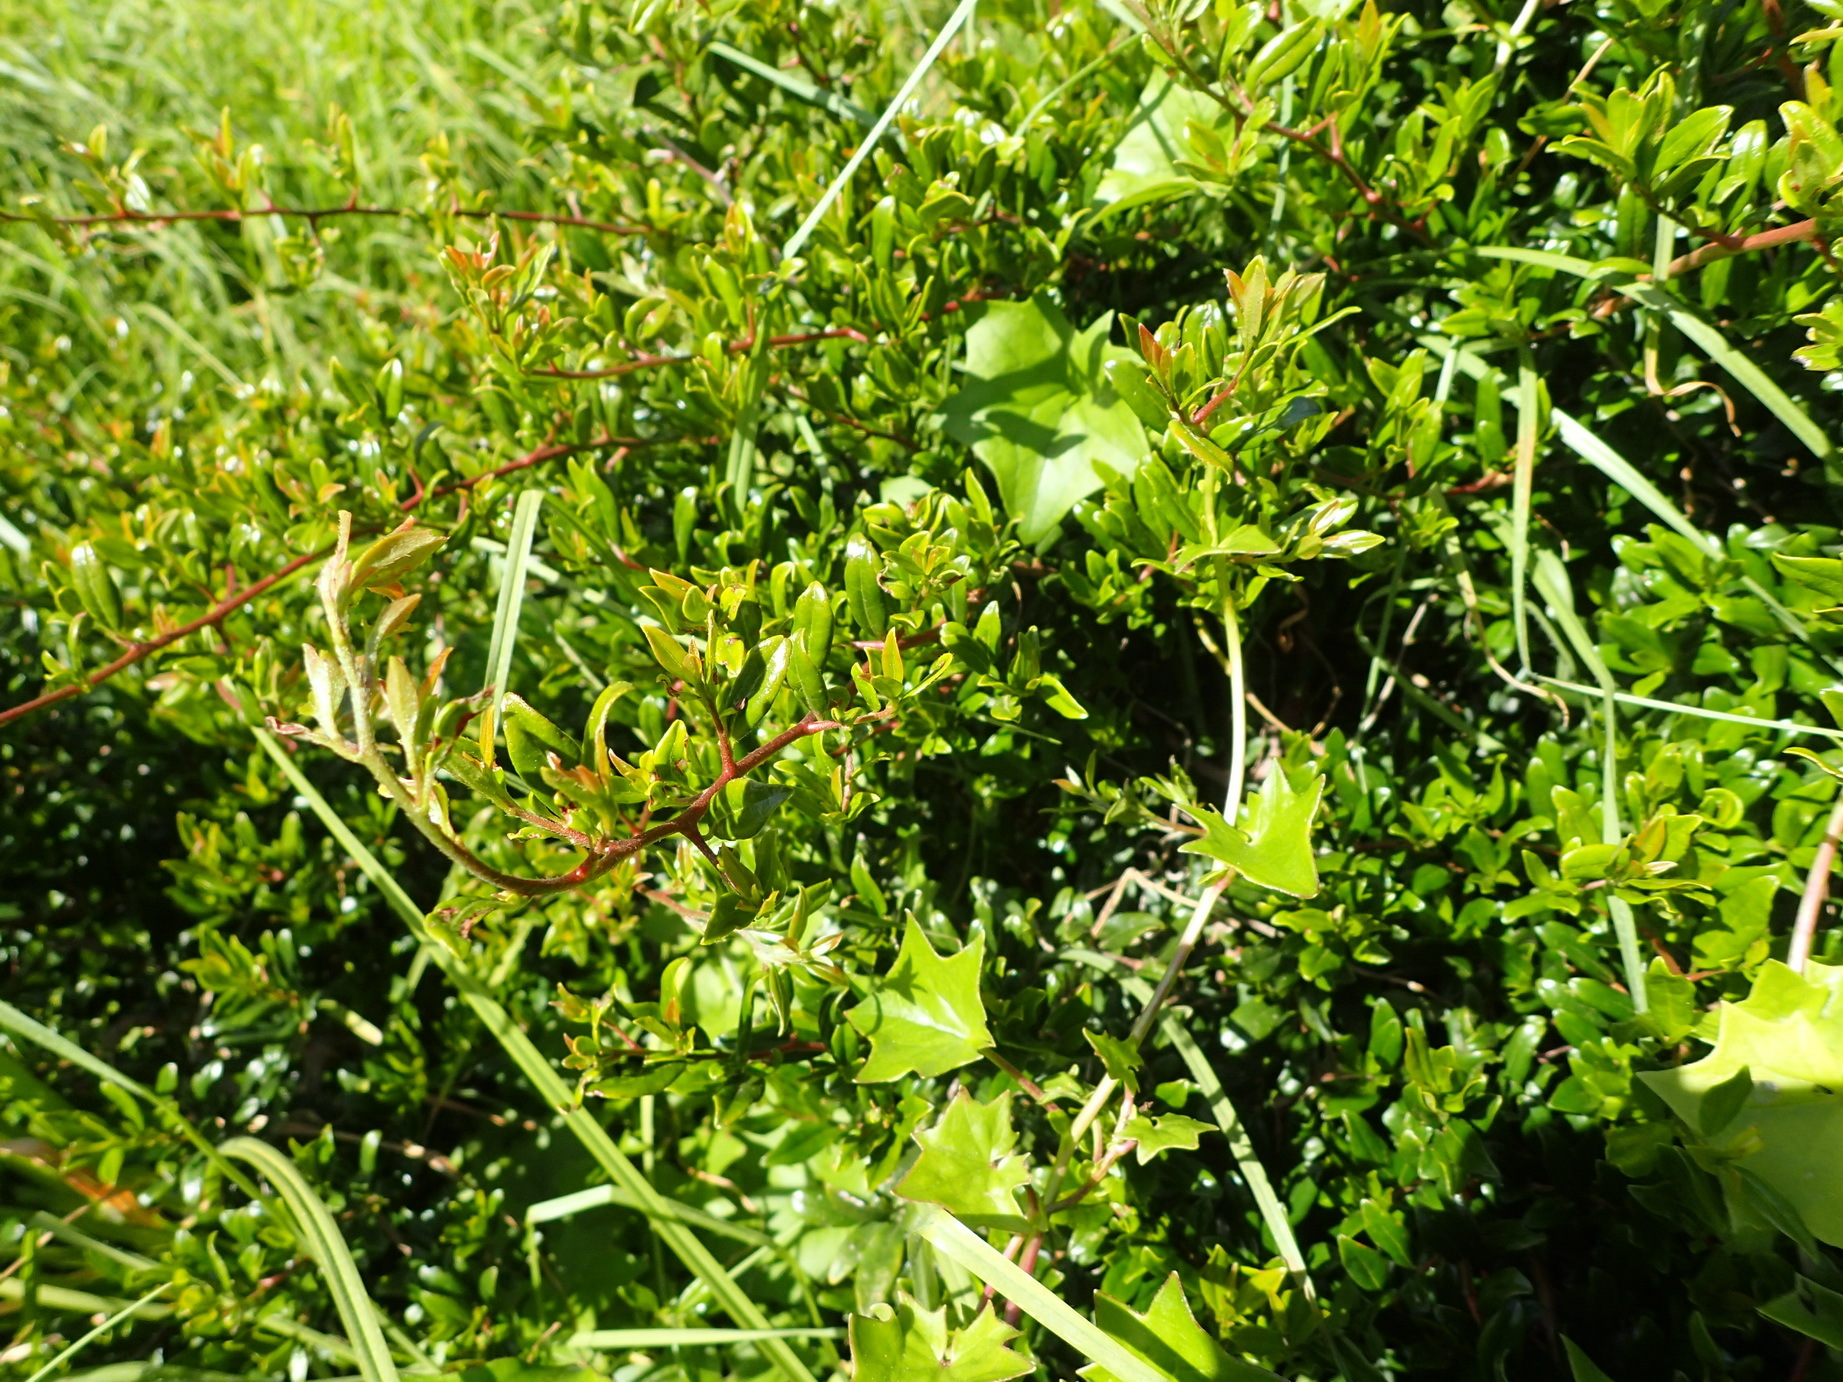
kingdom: Plantae
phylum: Tracheophyta
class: Magnoliopsida
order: Ericales
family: Ebenaceae
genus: Diospyros
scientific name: Diospyros simii
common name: Climbing star-apple
